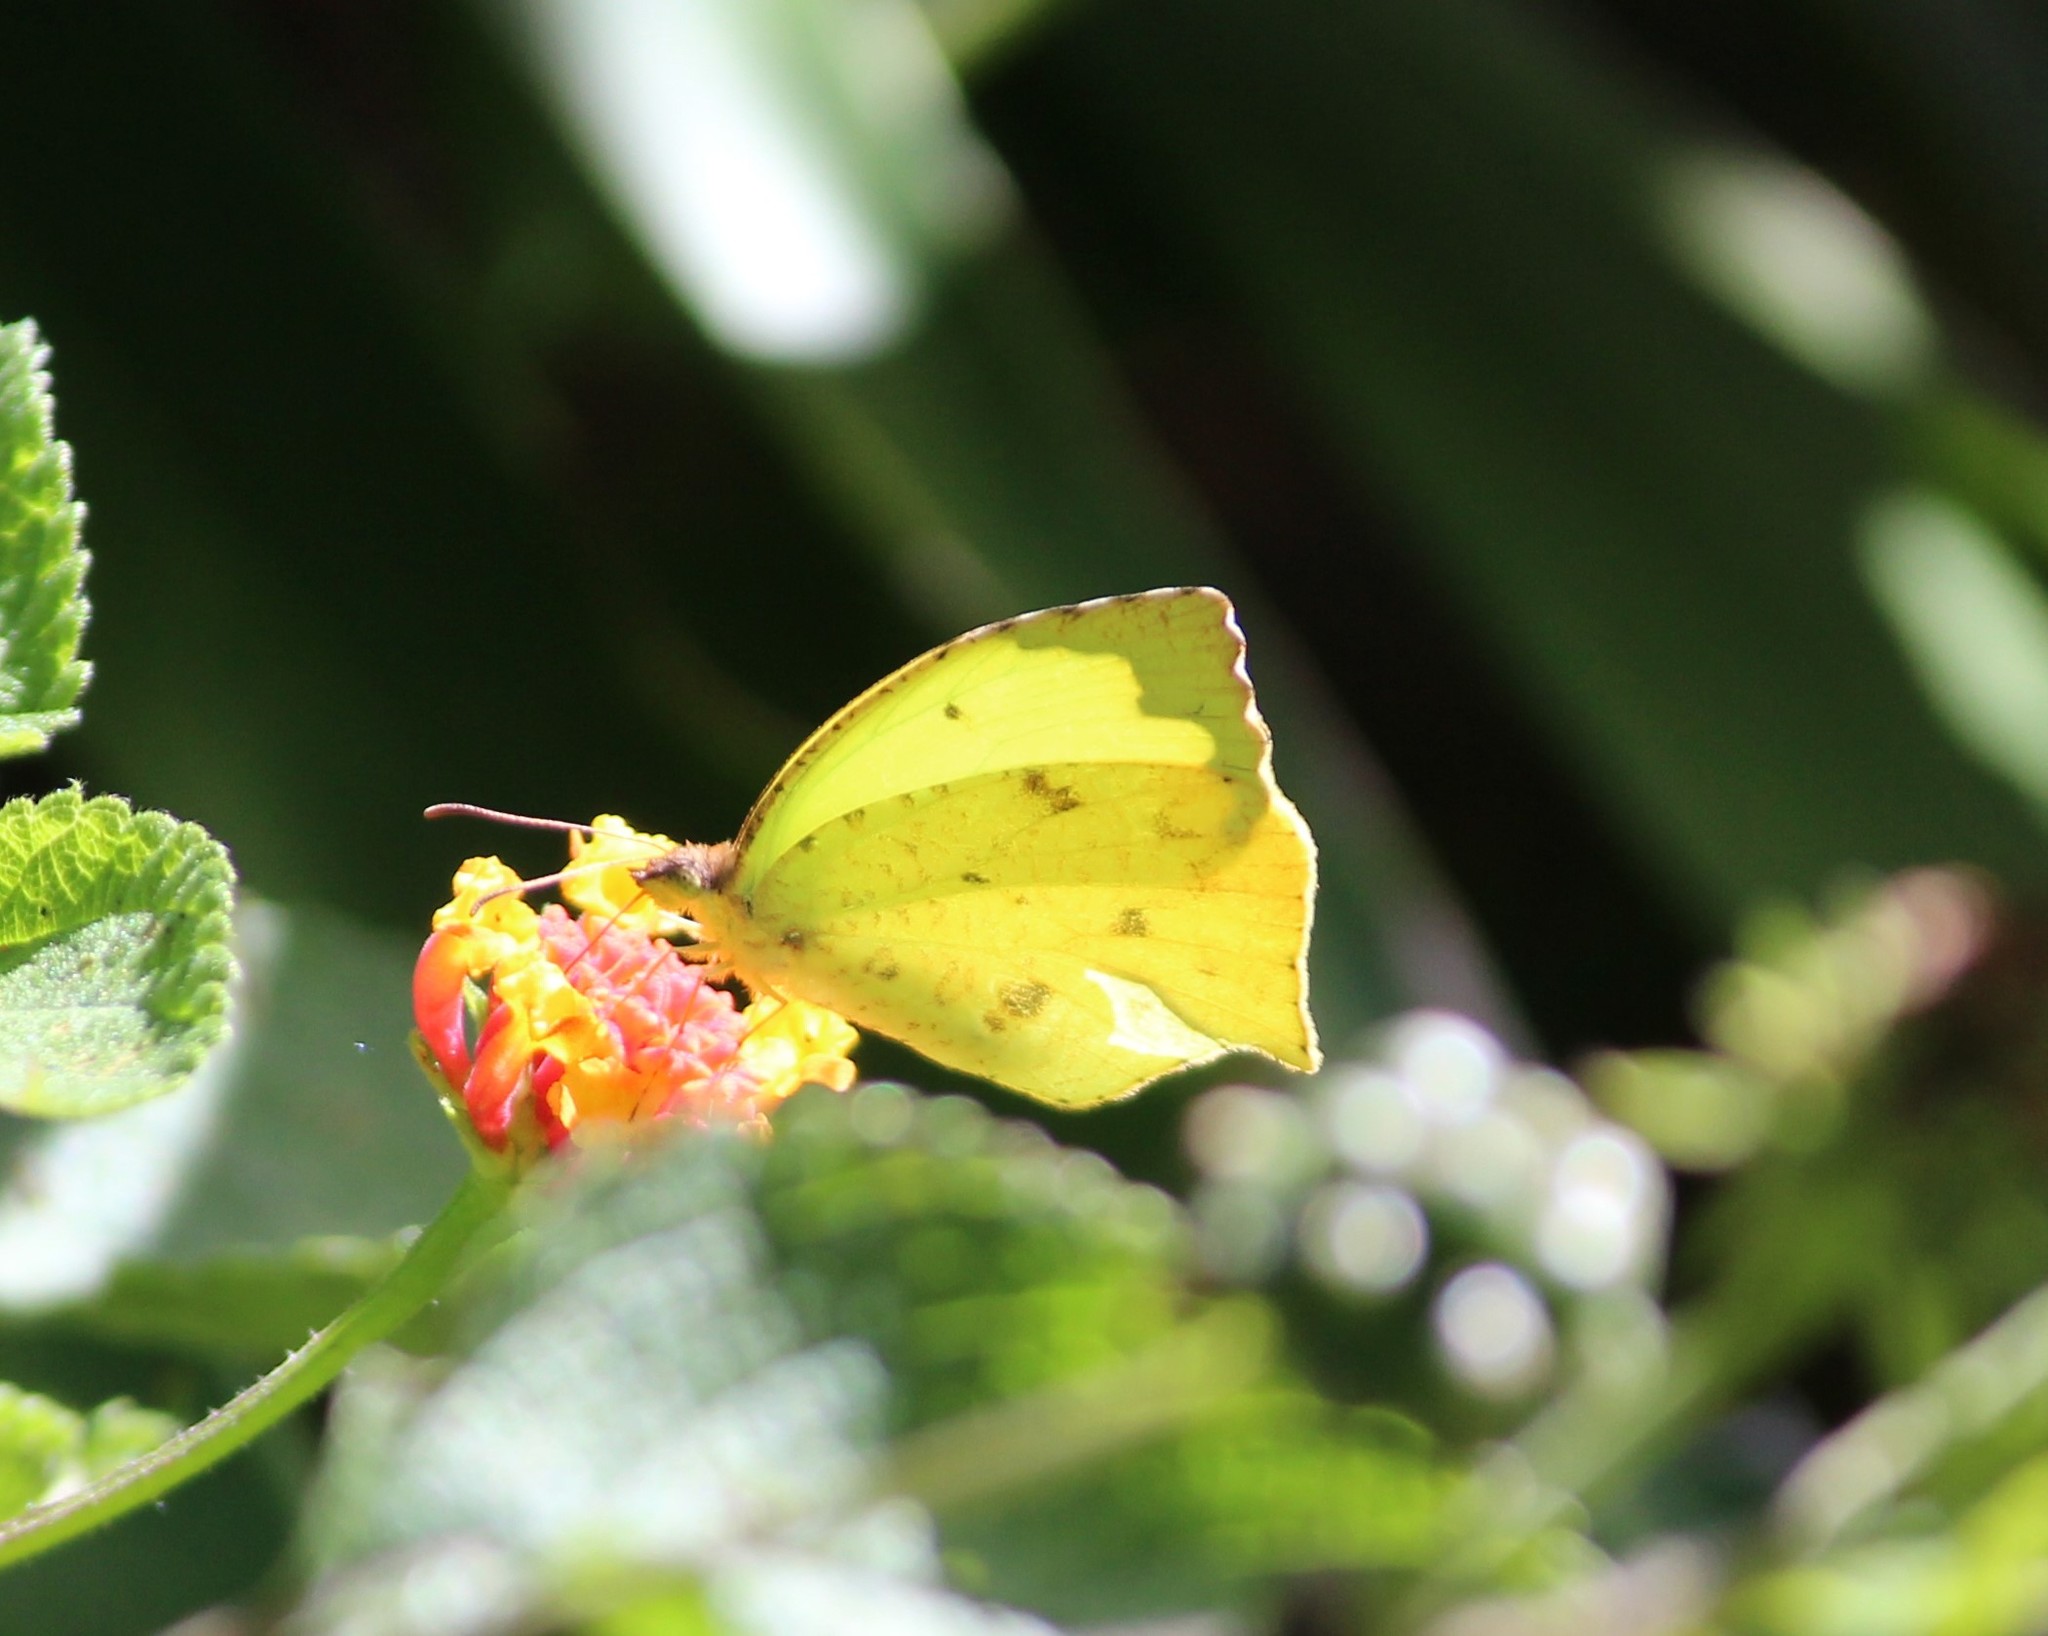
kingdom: Animalia
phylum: Arthropoda
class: Insecta
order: Lepidoptera
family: Pieridae
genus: Abaeis
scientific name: Abaeis salome
